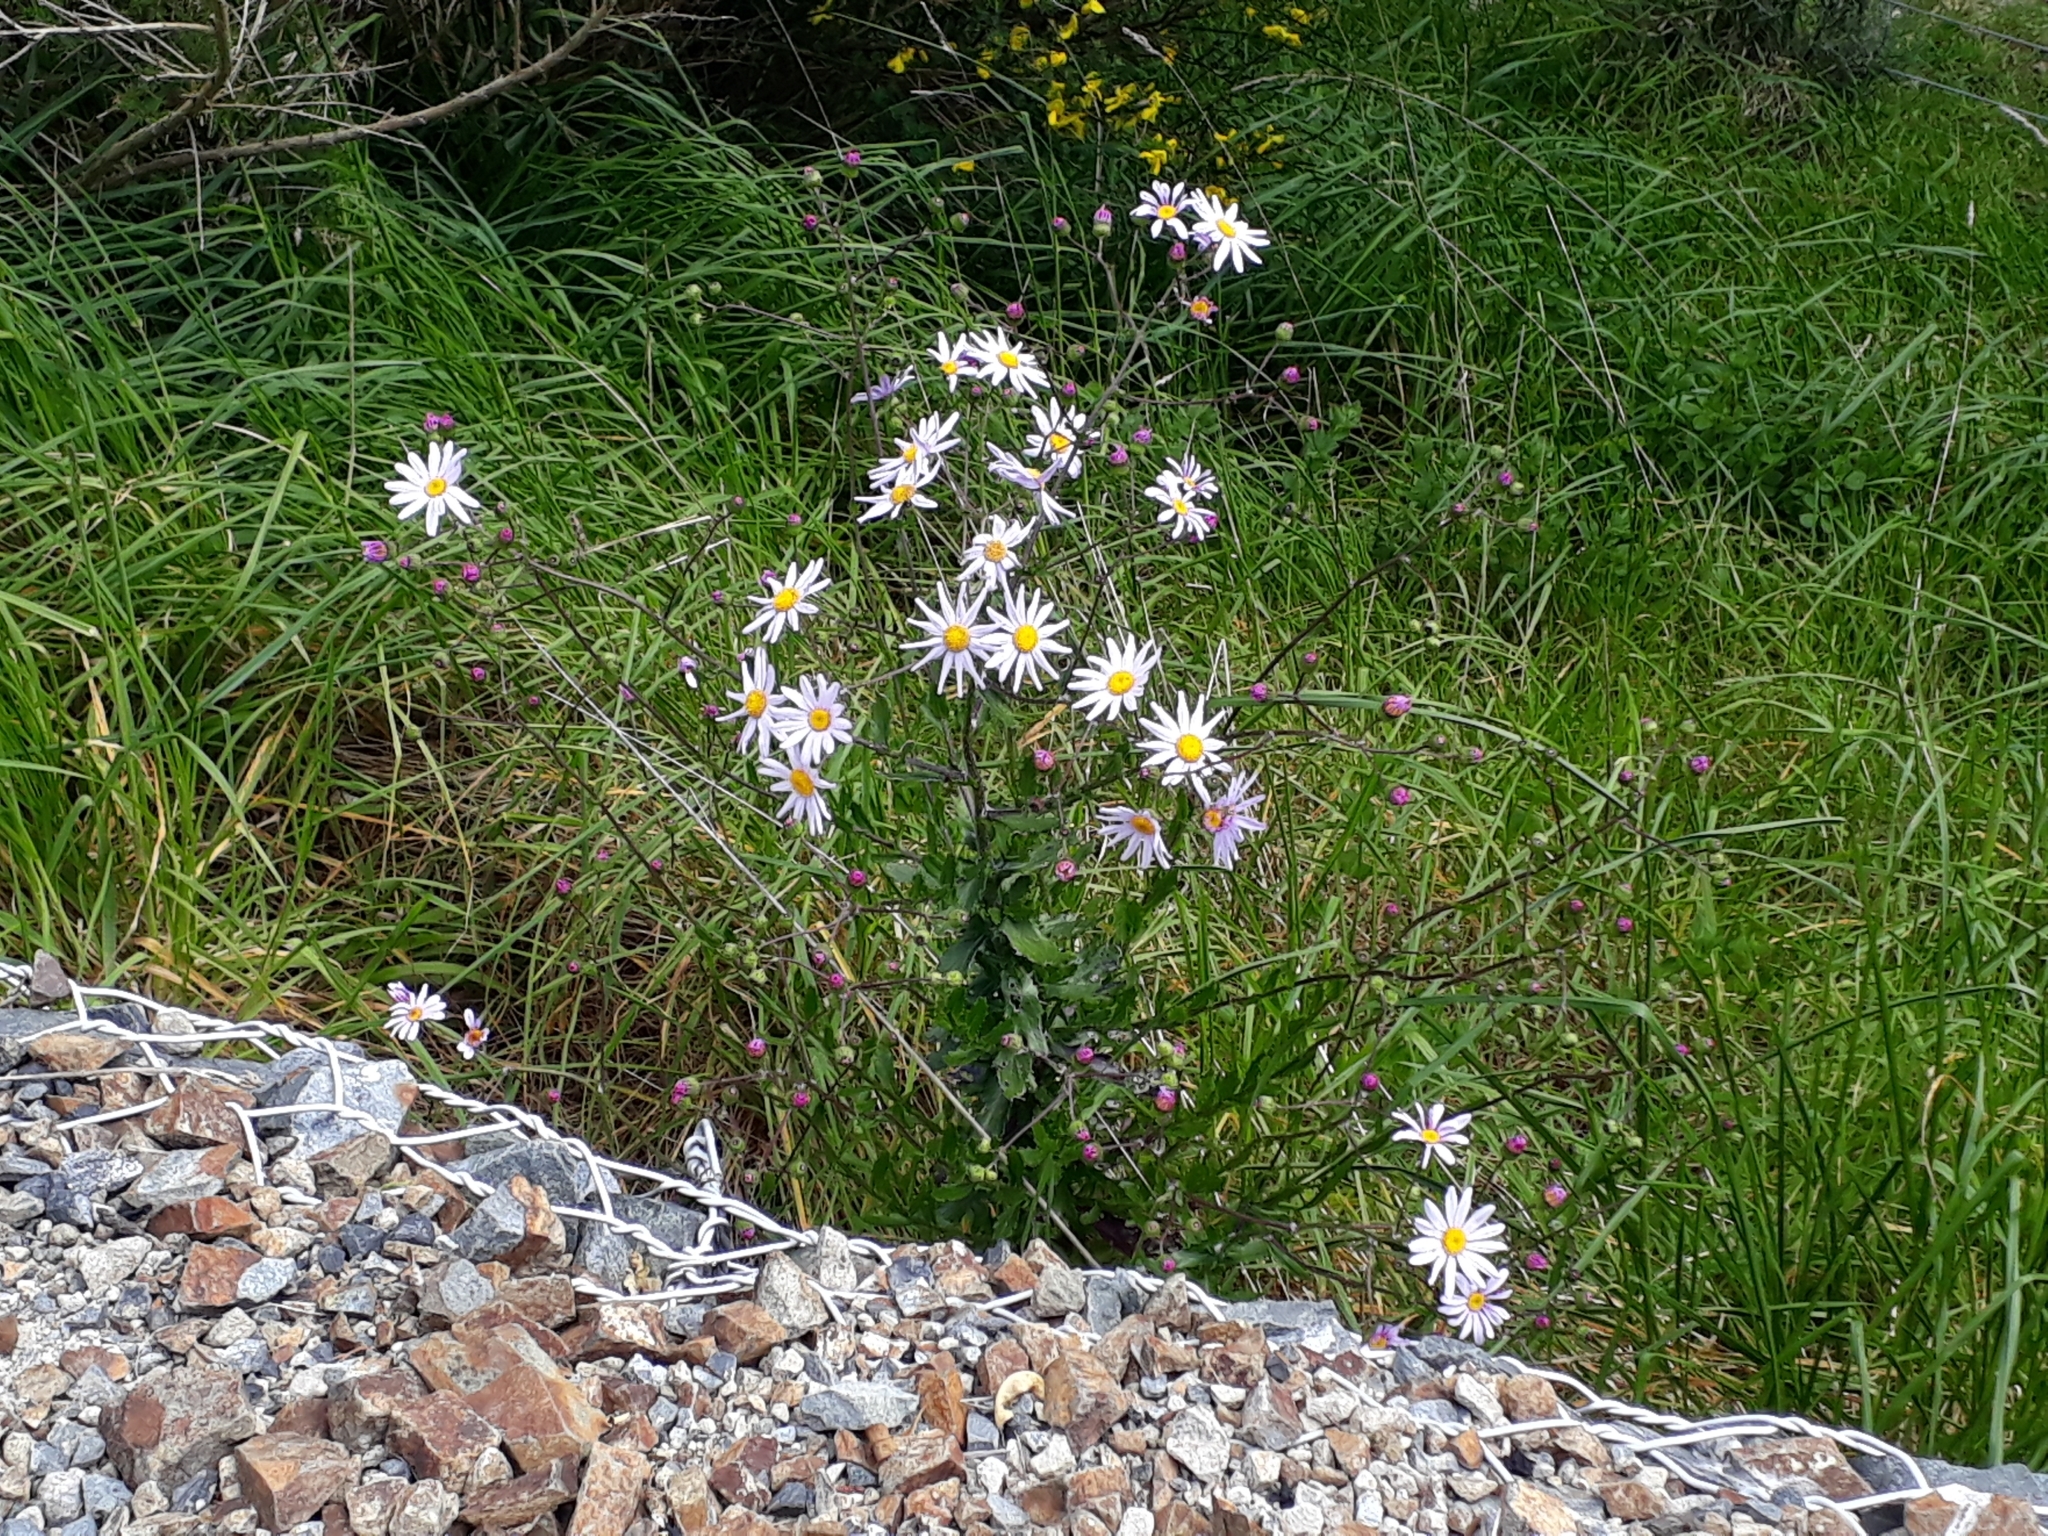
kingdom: Plantae
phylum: Tracheophyta
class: Magnoliopsida
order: Asterales
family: Asteraceae
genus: Senecio
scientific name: Senecio glastifolius
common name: Woad-leaved ragwort
